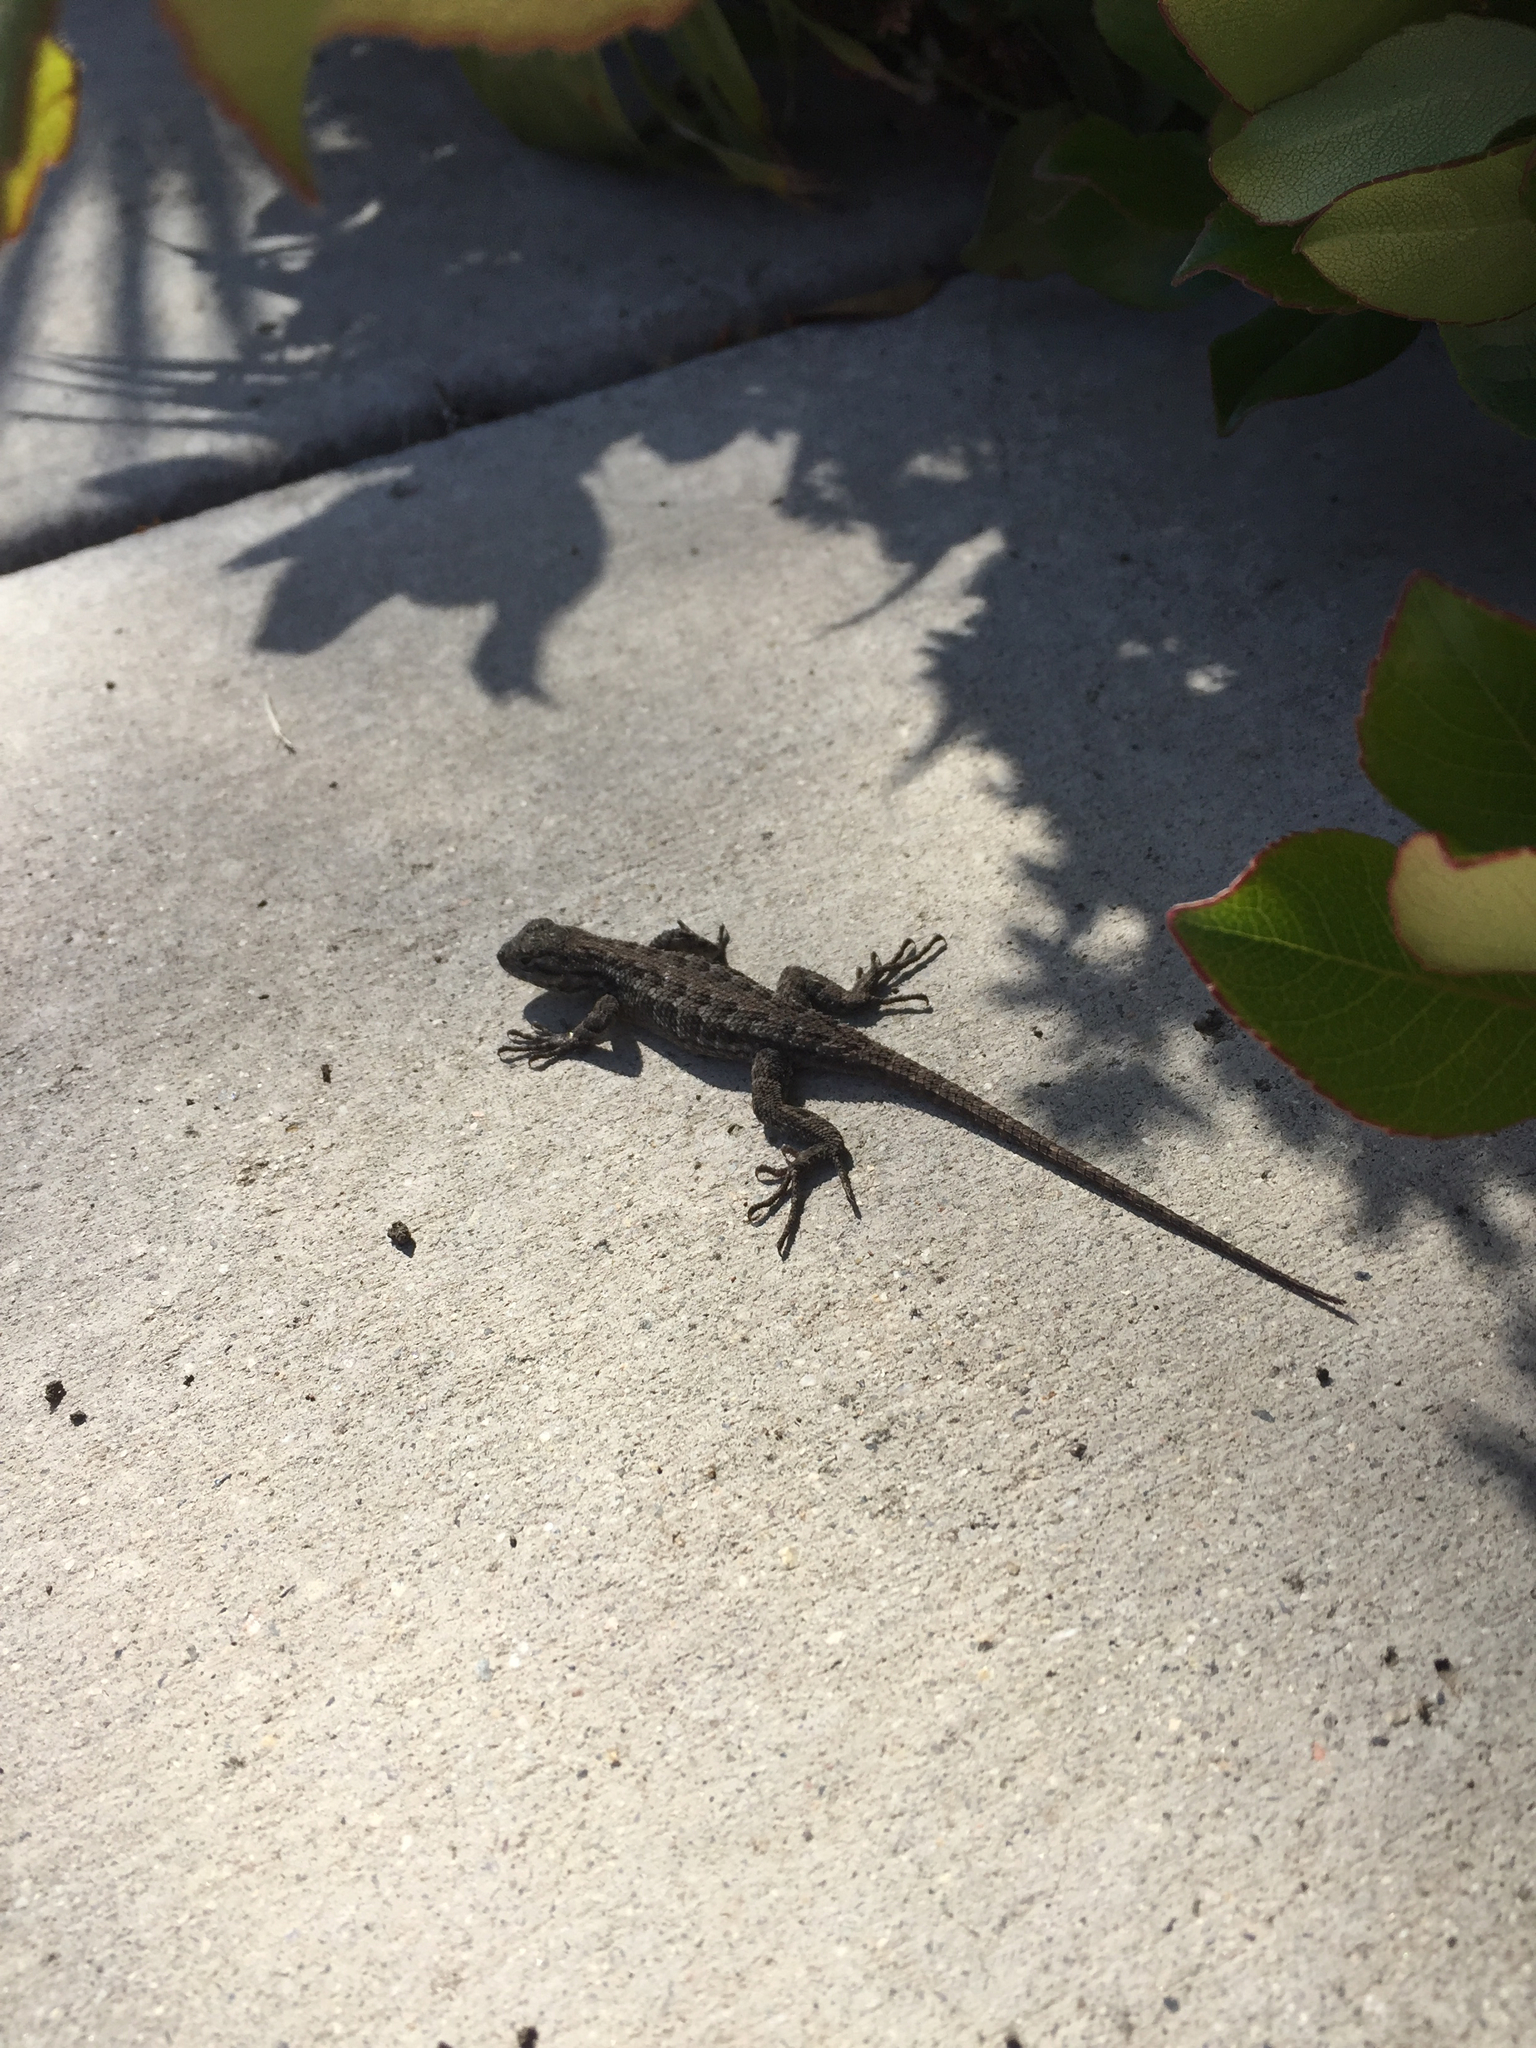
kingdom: Animalia
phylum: Chordata
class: Squamata
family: Phrynosomatidae
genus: Sceloporus
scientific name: Sceloporus occidentalis
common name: Western fence lizard
